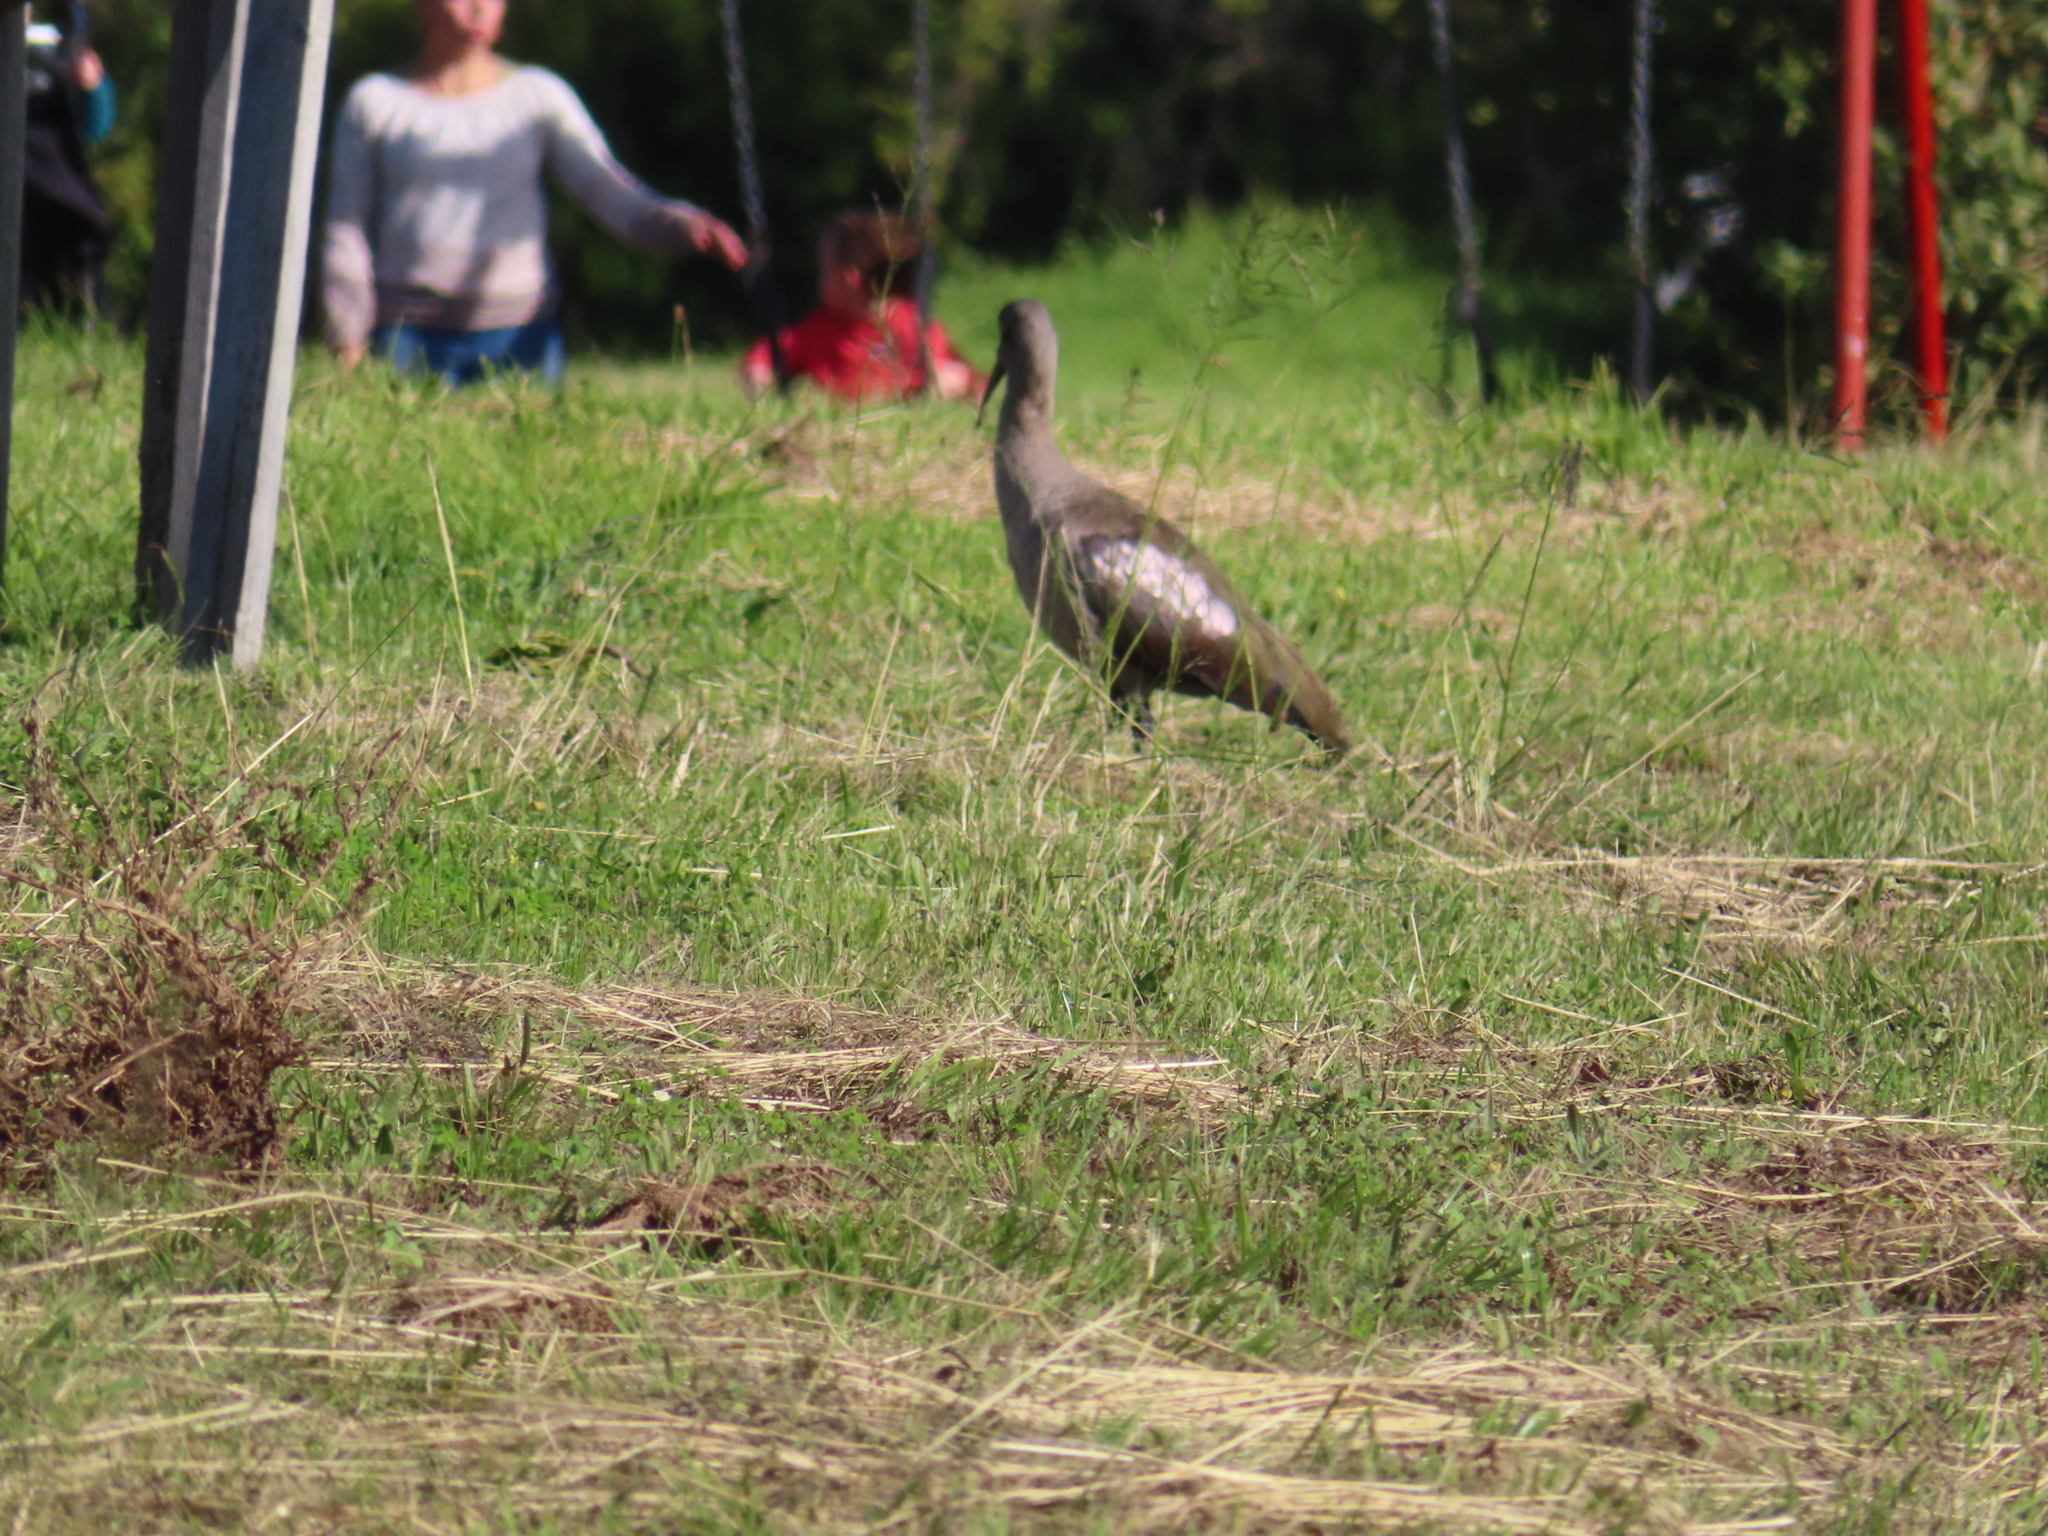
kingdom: Animalia
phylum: Chordata
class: Aves
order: Pelecaniformes
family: Threskiornithidae
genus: Bostrychia
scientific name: Bostrychia hagedash
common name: Hadada ibis
